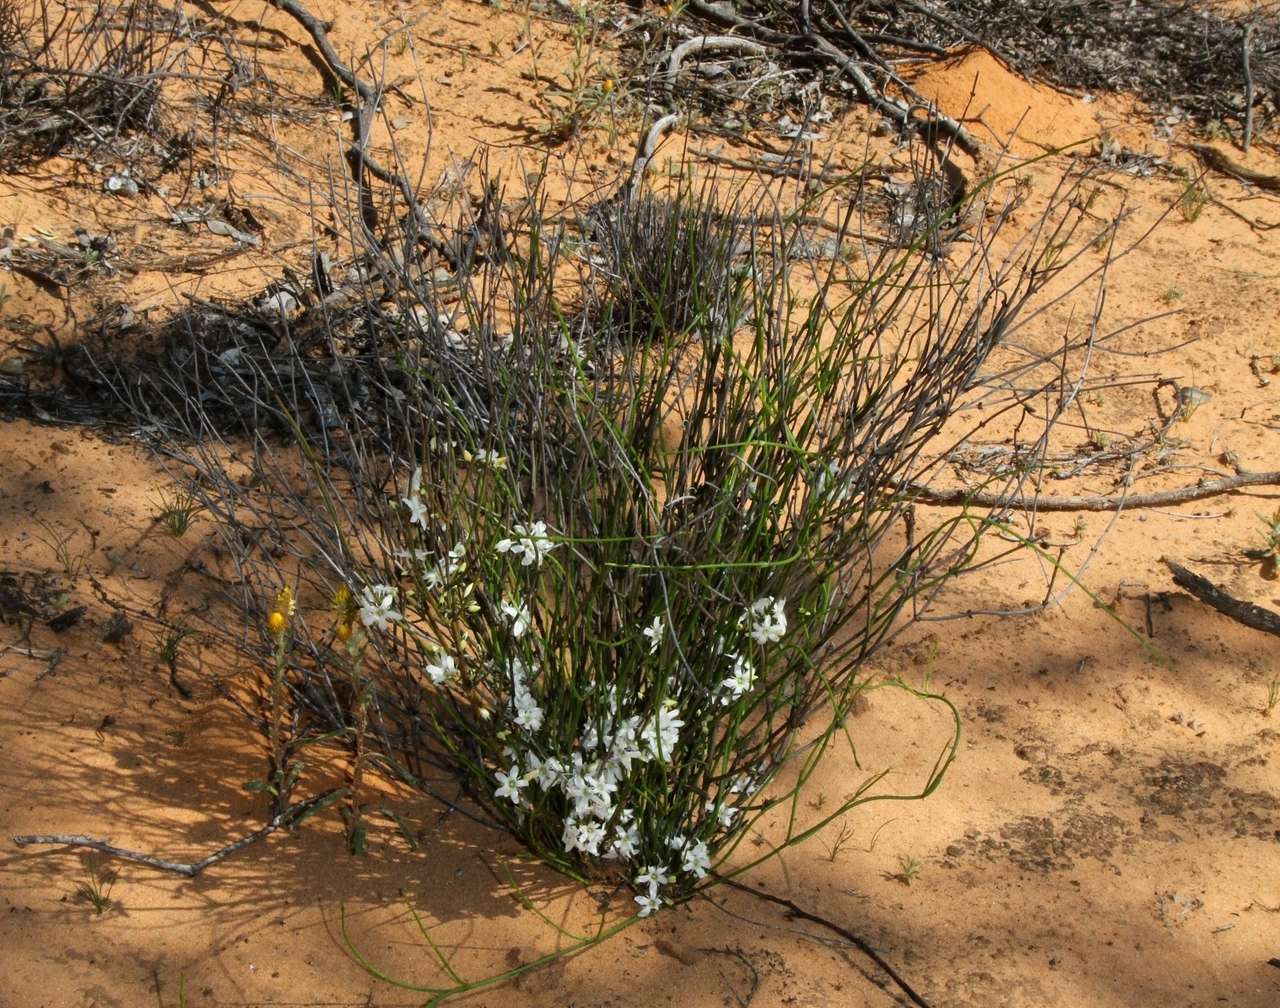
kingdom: Plantae
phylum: Tracheophyta
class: Magnoliopsida
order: Gentianales
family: Loganiaceae
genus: Orianthera
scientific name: Orianthera nuda
